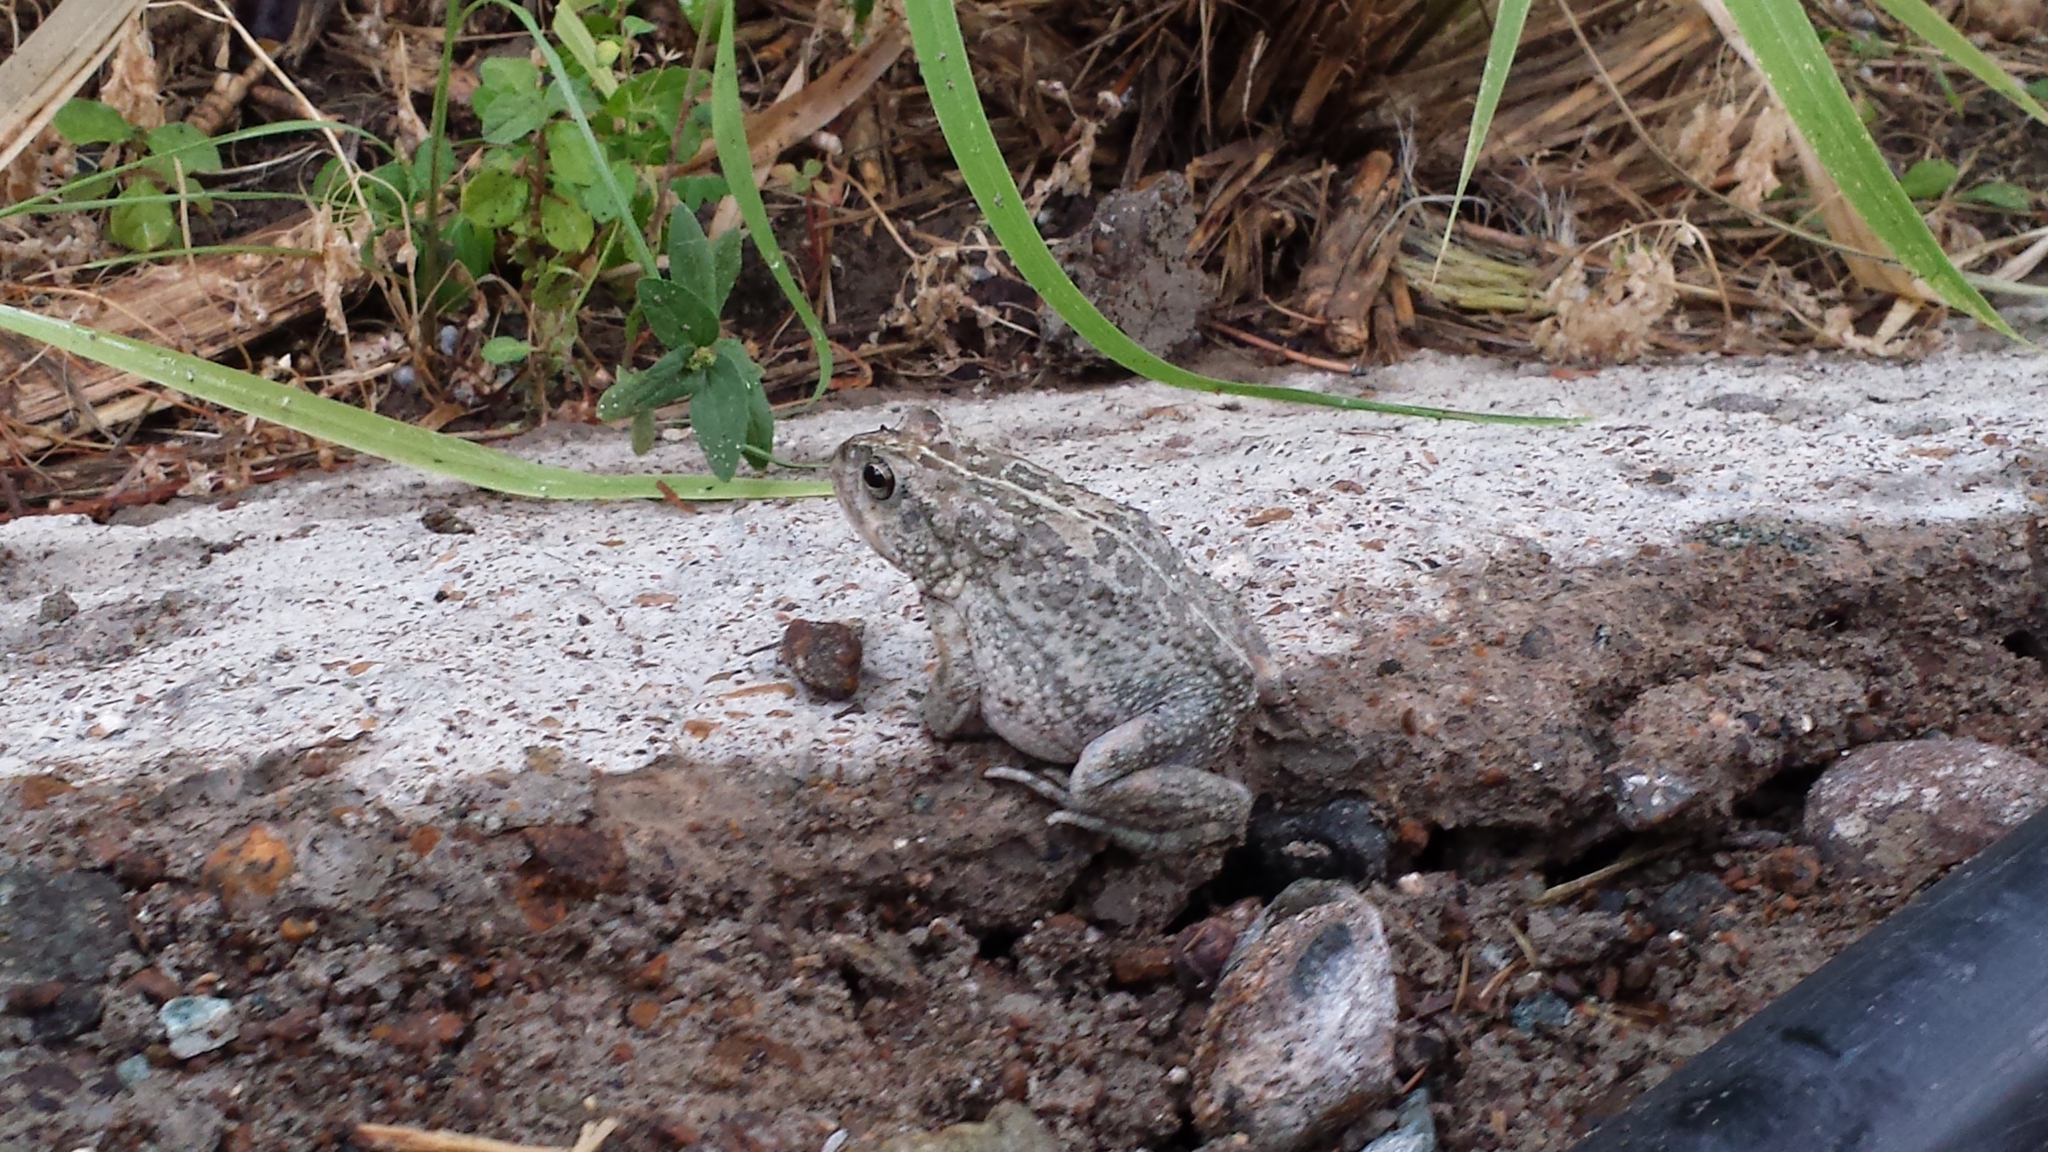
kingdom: Animalia
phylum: Chordata
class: Amphibia
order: Anura
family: Bufonidae
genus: Sclerophrys
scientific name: Sclerophrys arabica
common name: Arabian toad
